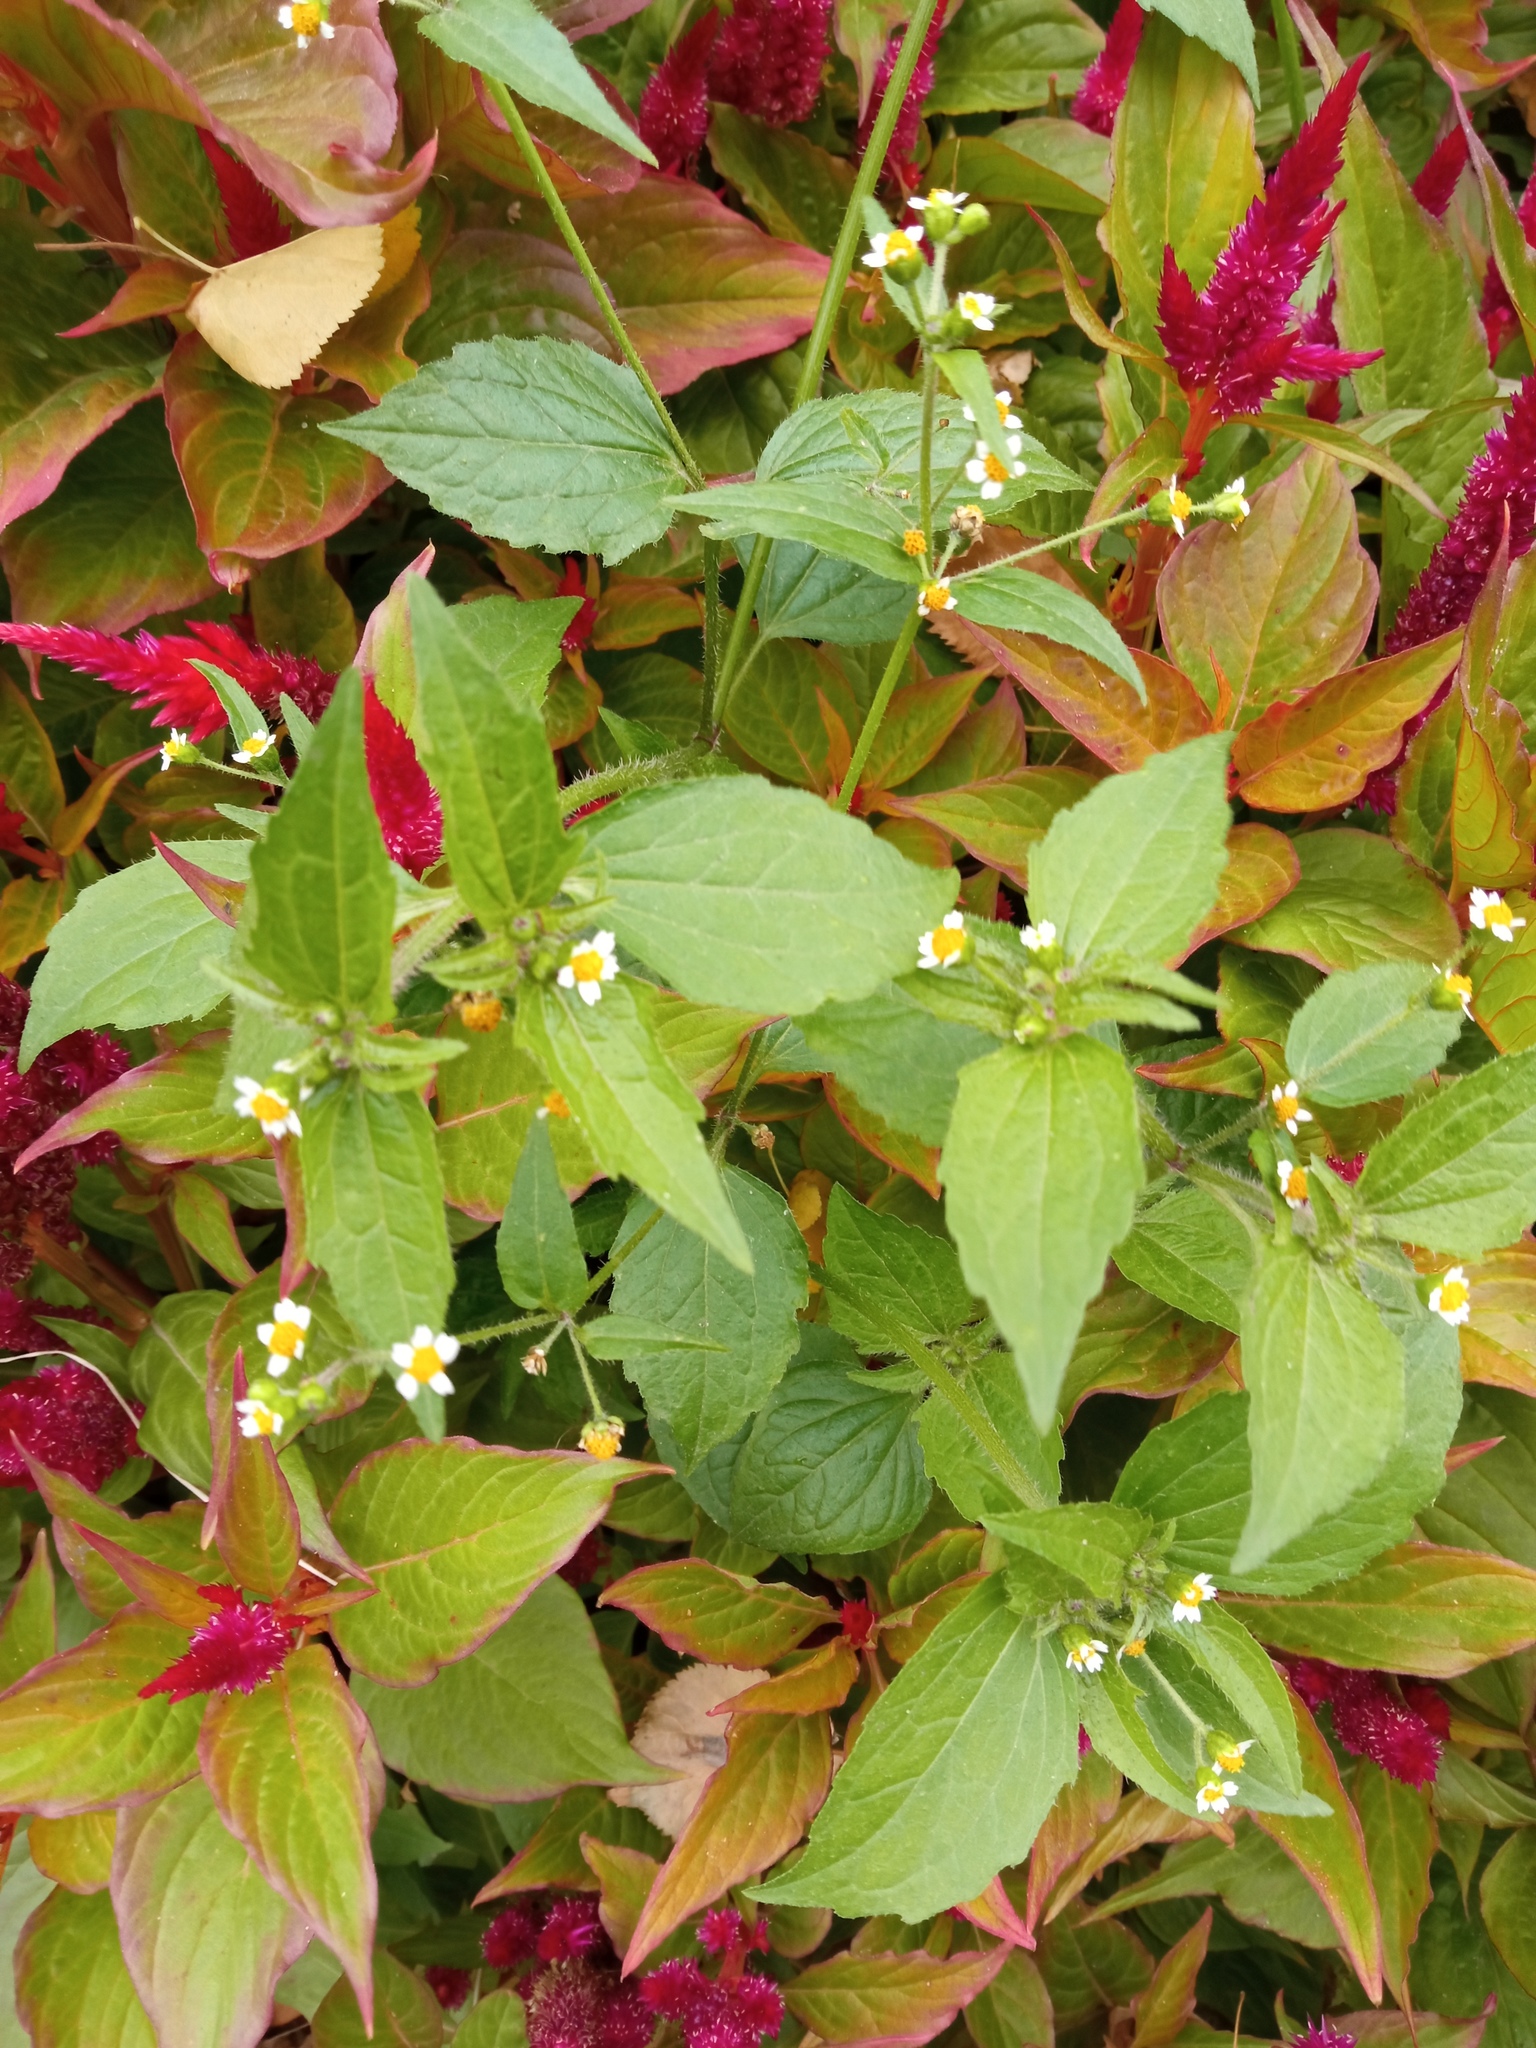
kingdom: Plantae
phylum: Tracheophyta
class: Magnoliopsida
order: Asterales
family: Asteraceae
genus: Galinsoga
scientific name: Galinsoga quadriradiata
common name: Shaggy soldier
